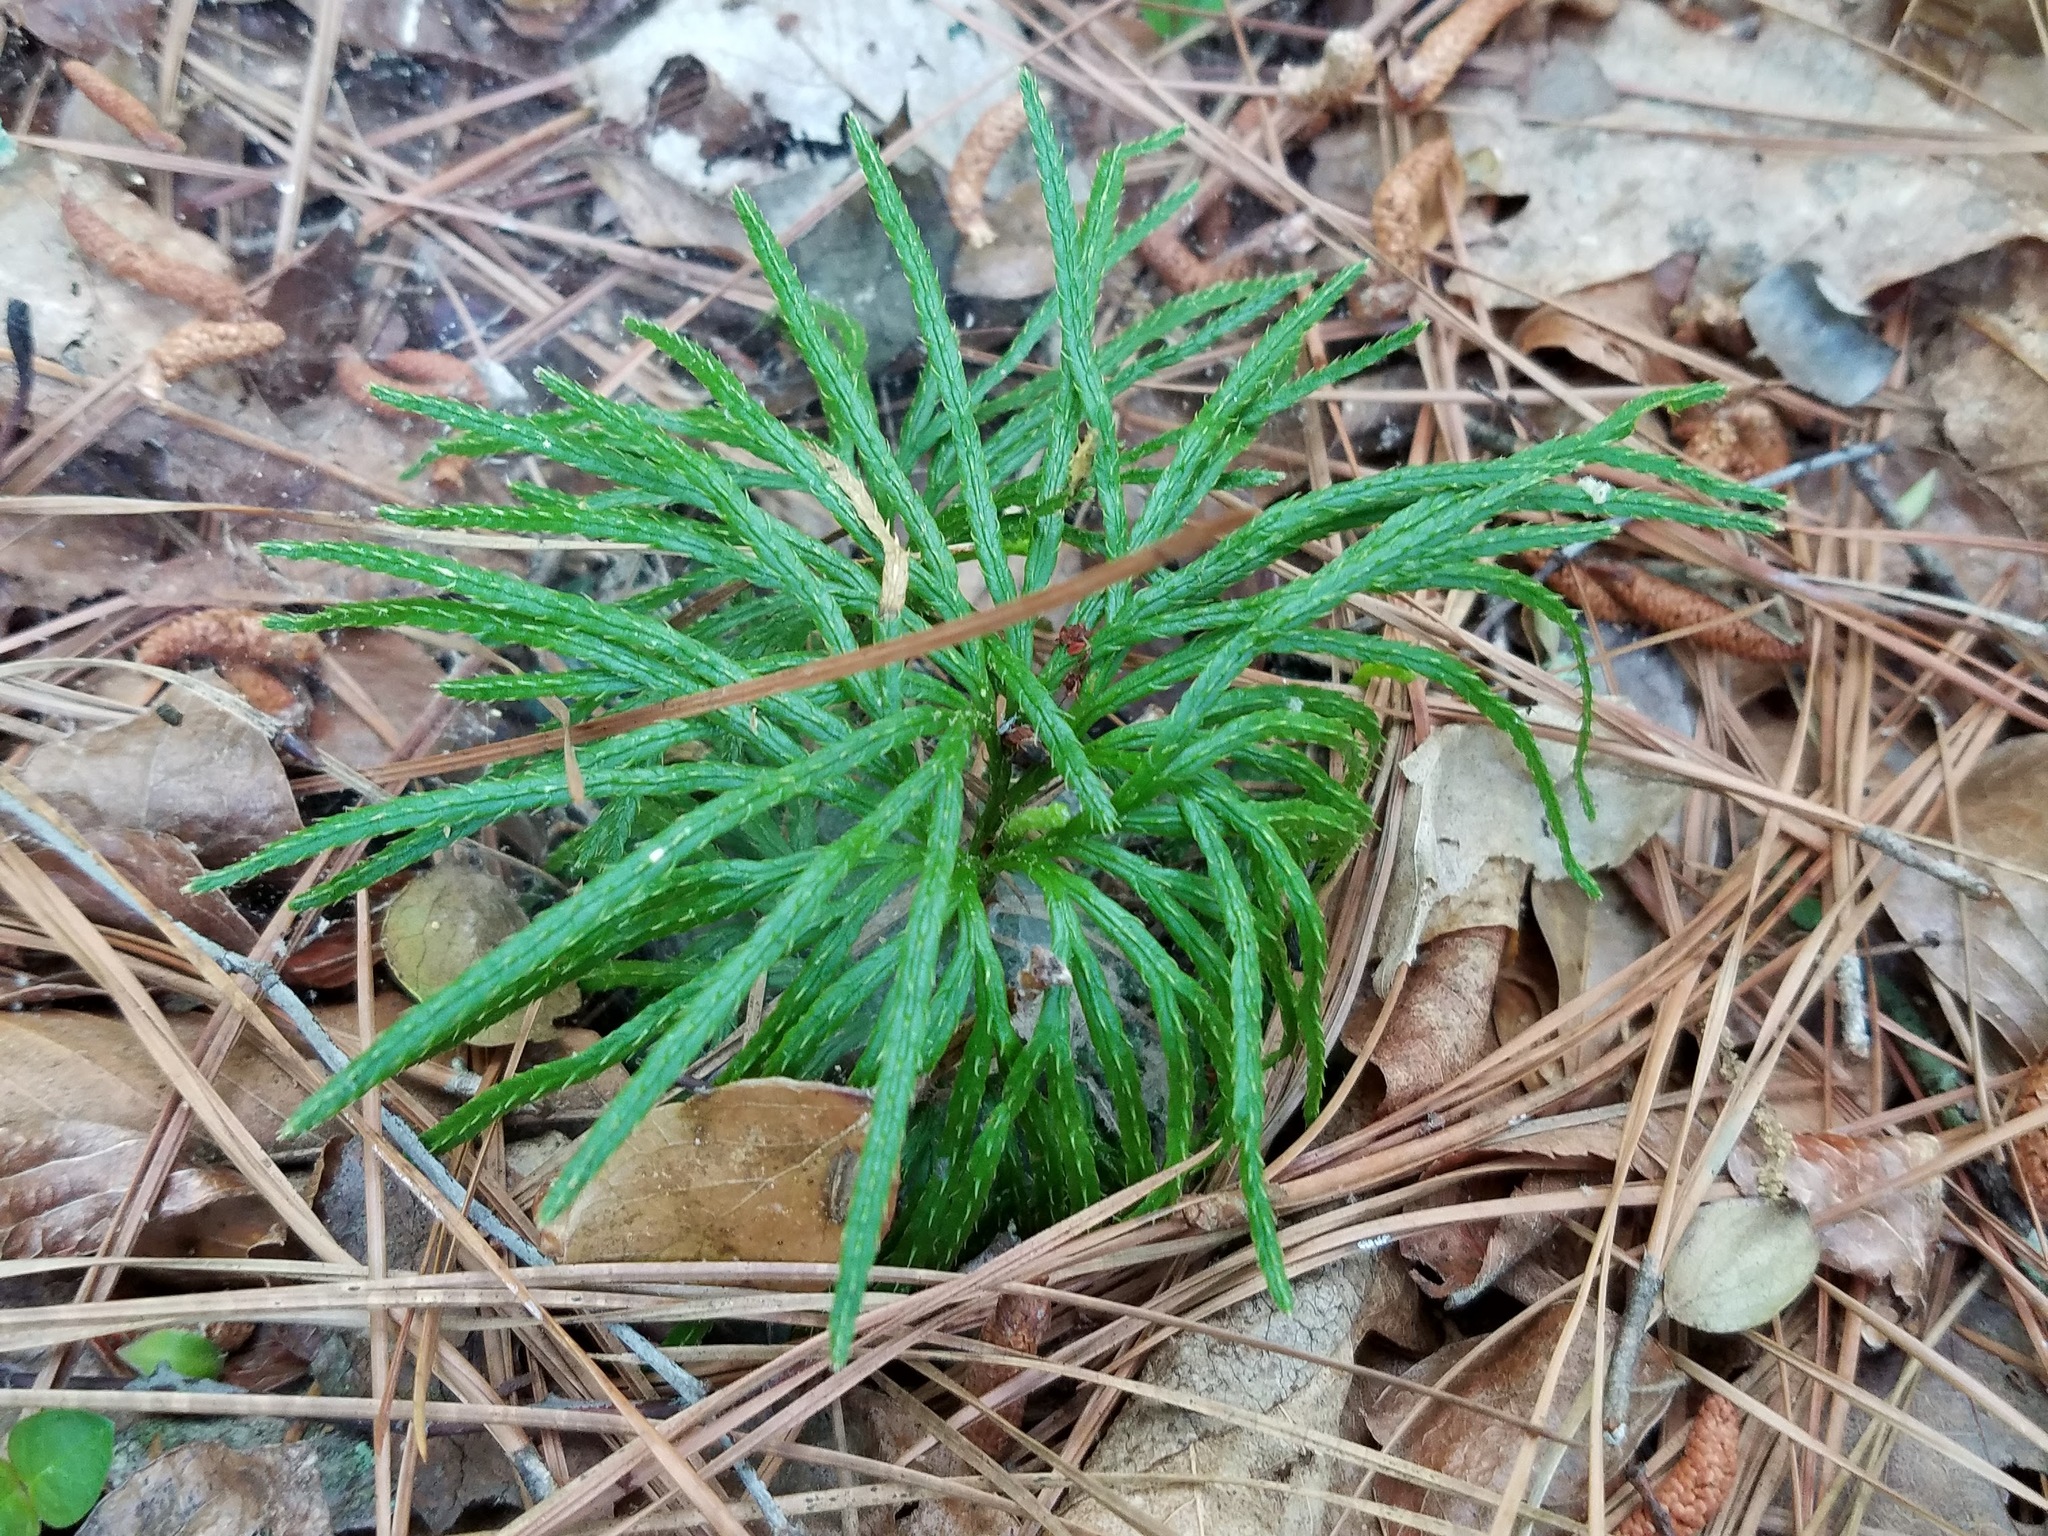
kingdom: Plantae
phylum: Tracheophyta
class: Lycopodiopsida
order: Lycopodiales
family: Lycopodiaceae
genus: Diphasiastrum
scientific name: Diphasiastrum digitatum
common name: Southern running-pine
